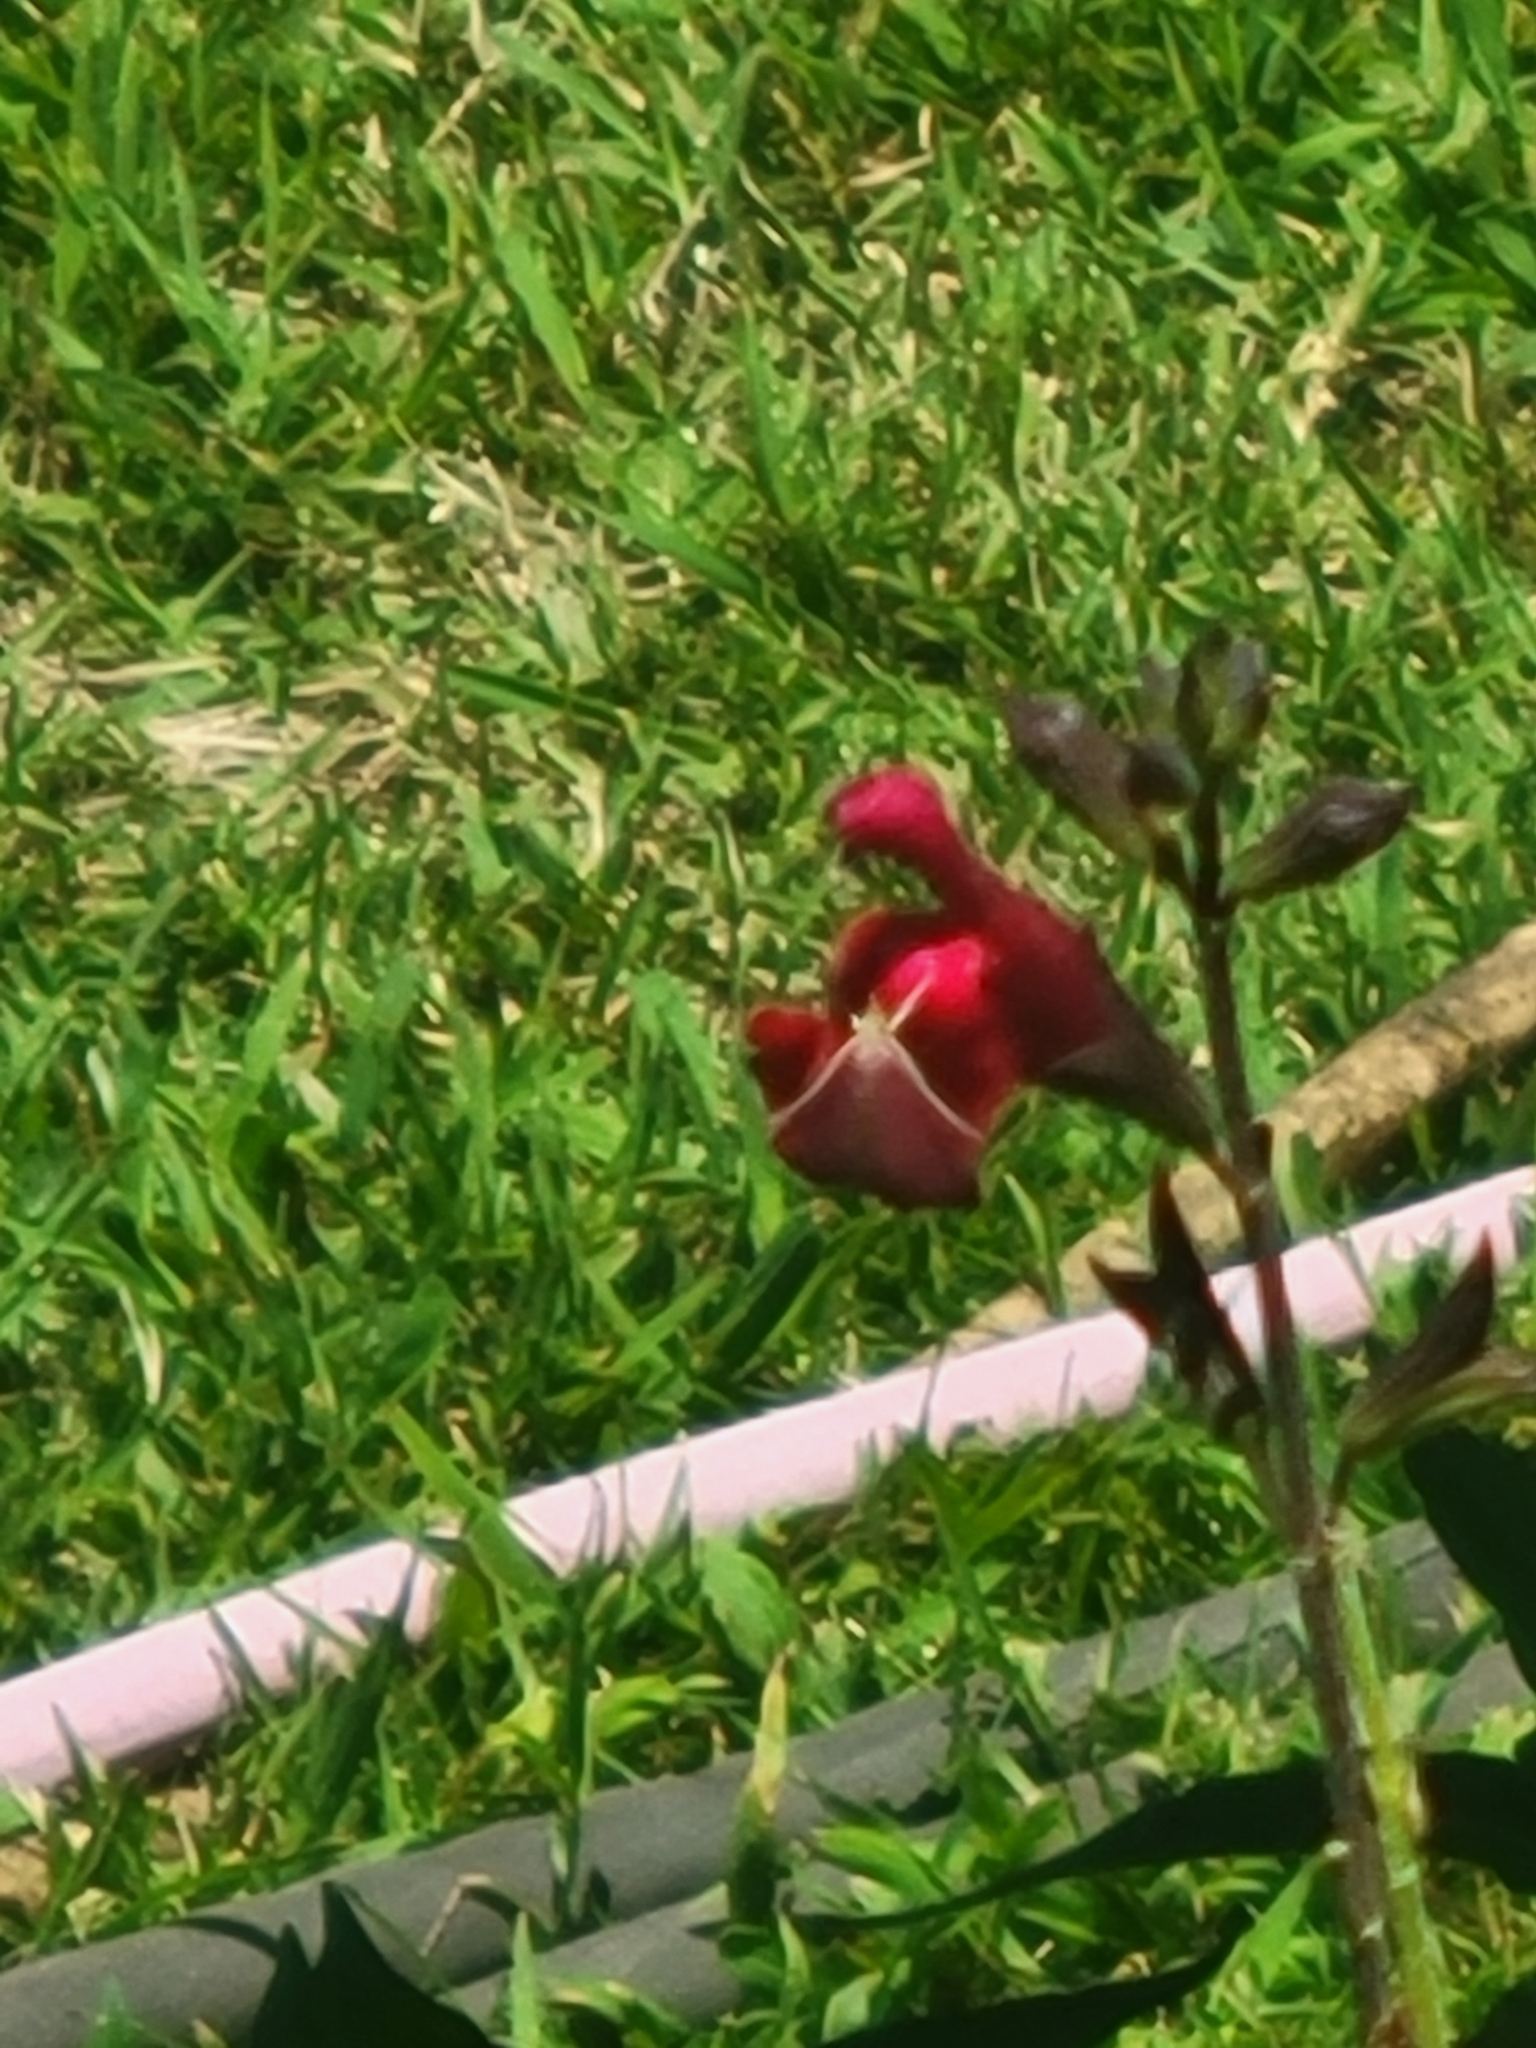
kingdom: Animalia
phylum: Arthropoda
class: Insecta
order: Lepidoptera
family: Crambidae
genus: Pyrausta
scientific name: Pyrausta inornatalis
